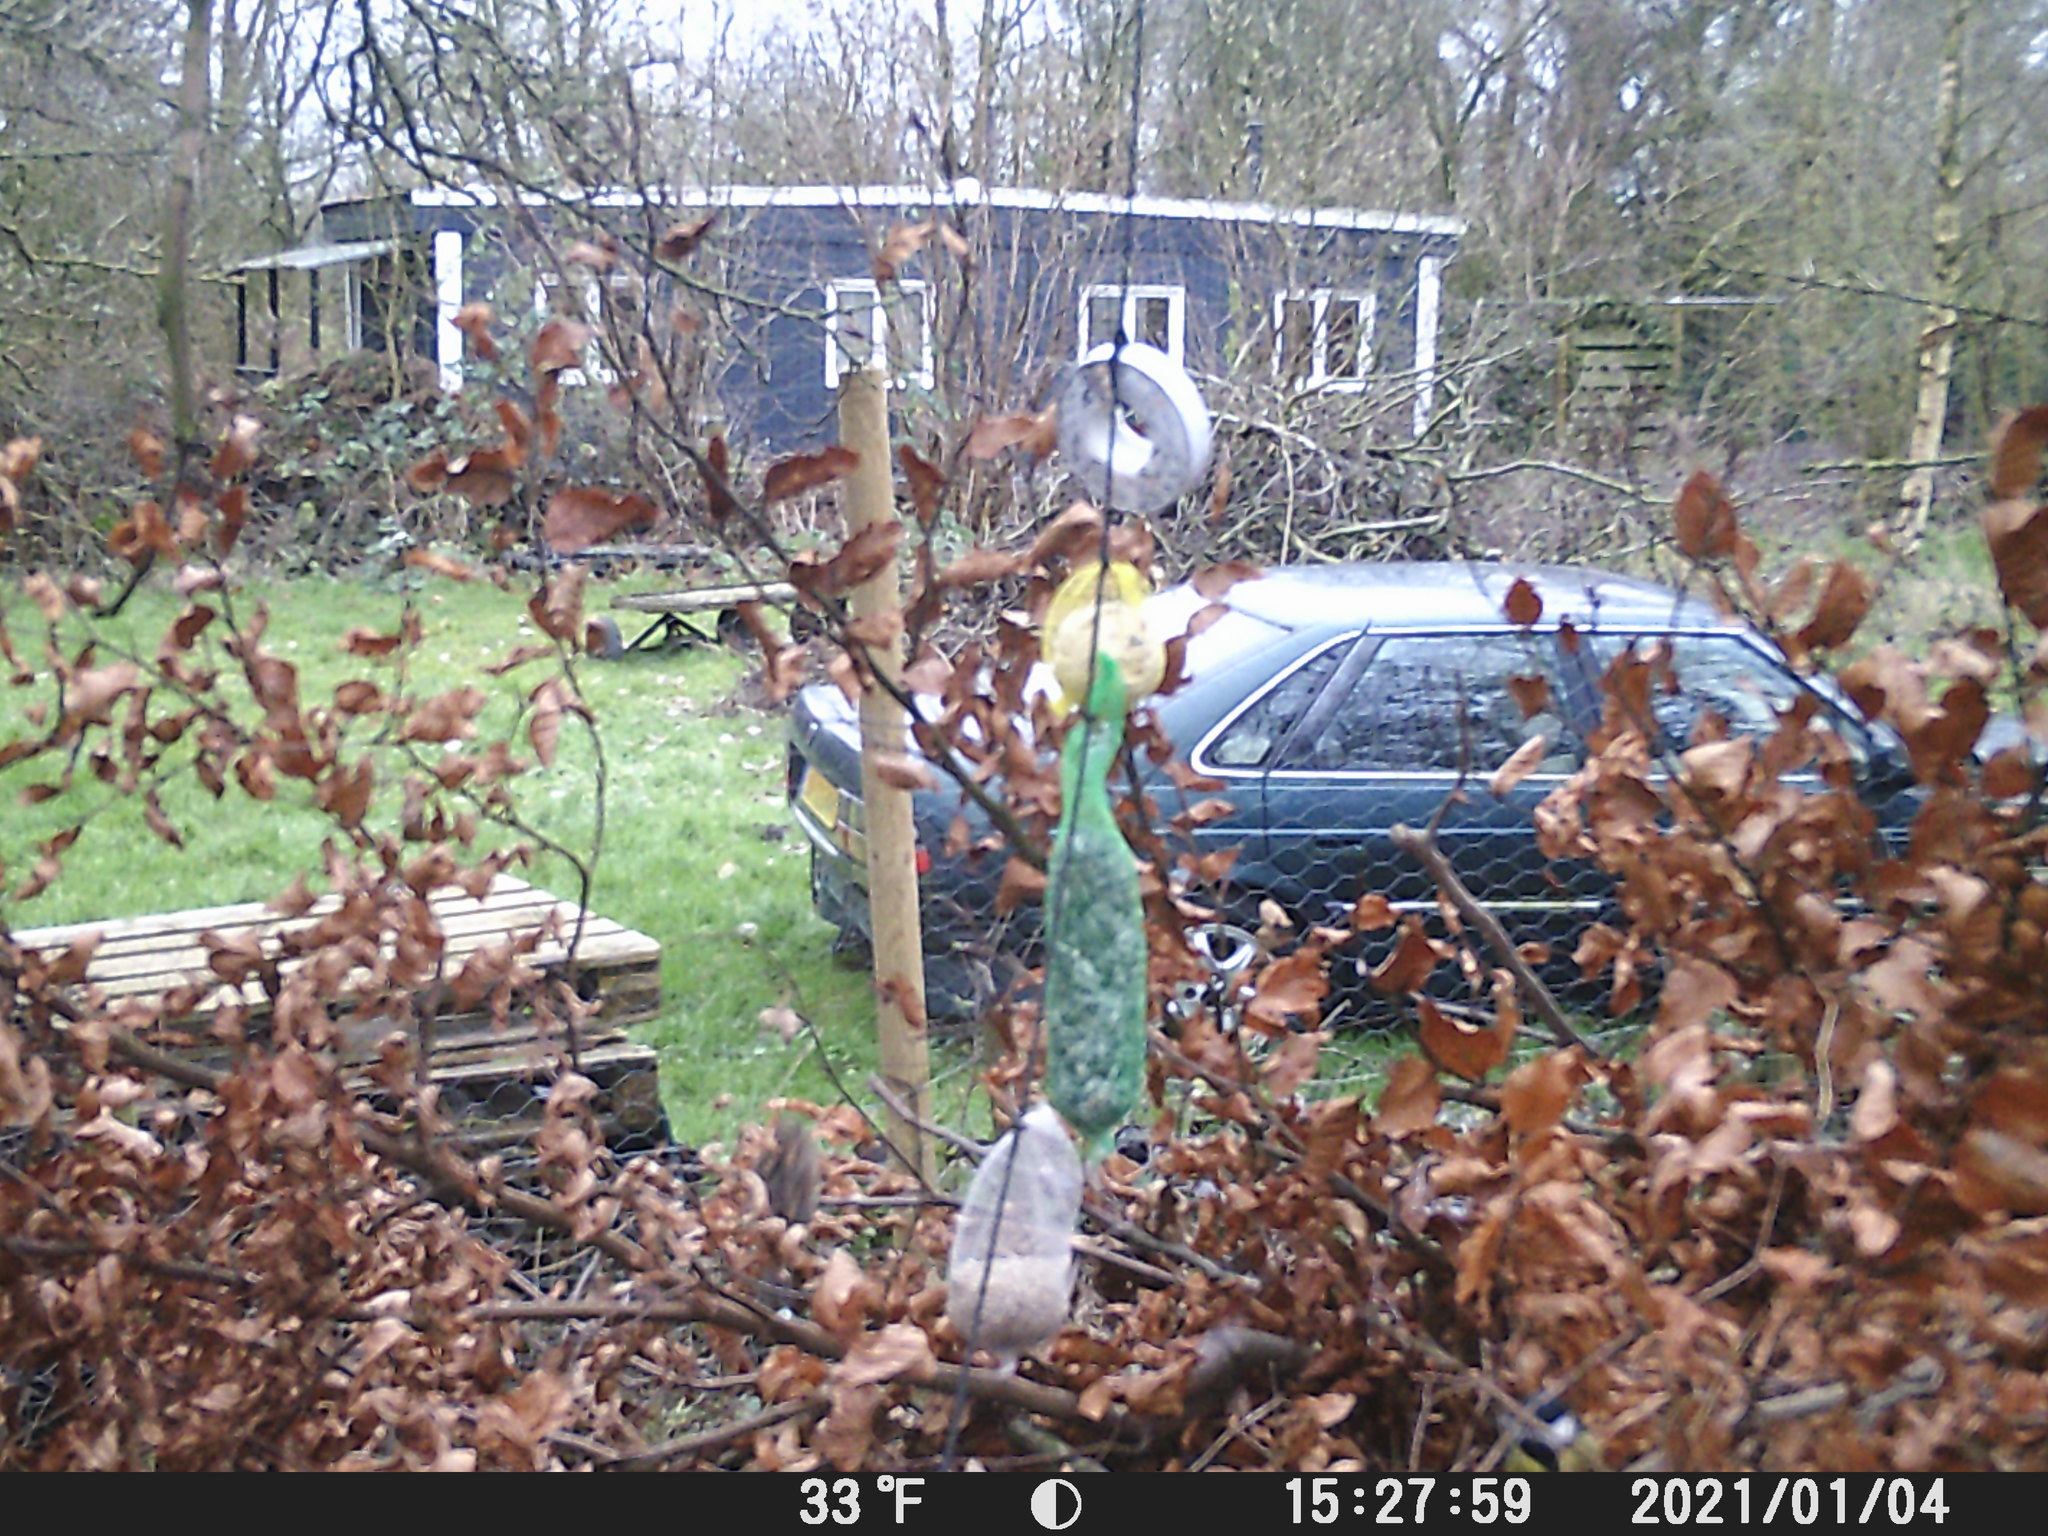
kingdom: Animalia
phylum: Chordata
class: Aves
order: Passeriformes
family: Paridae
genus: Parus
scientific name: Parus major
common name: Great tit
